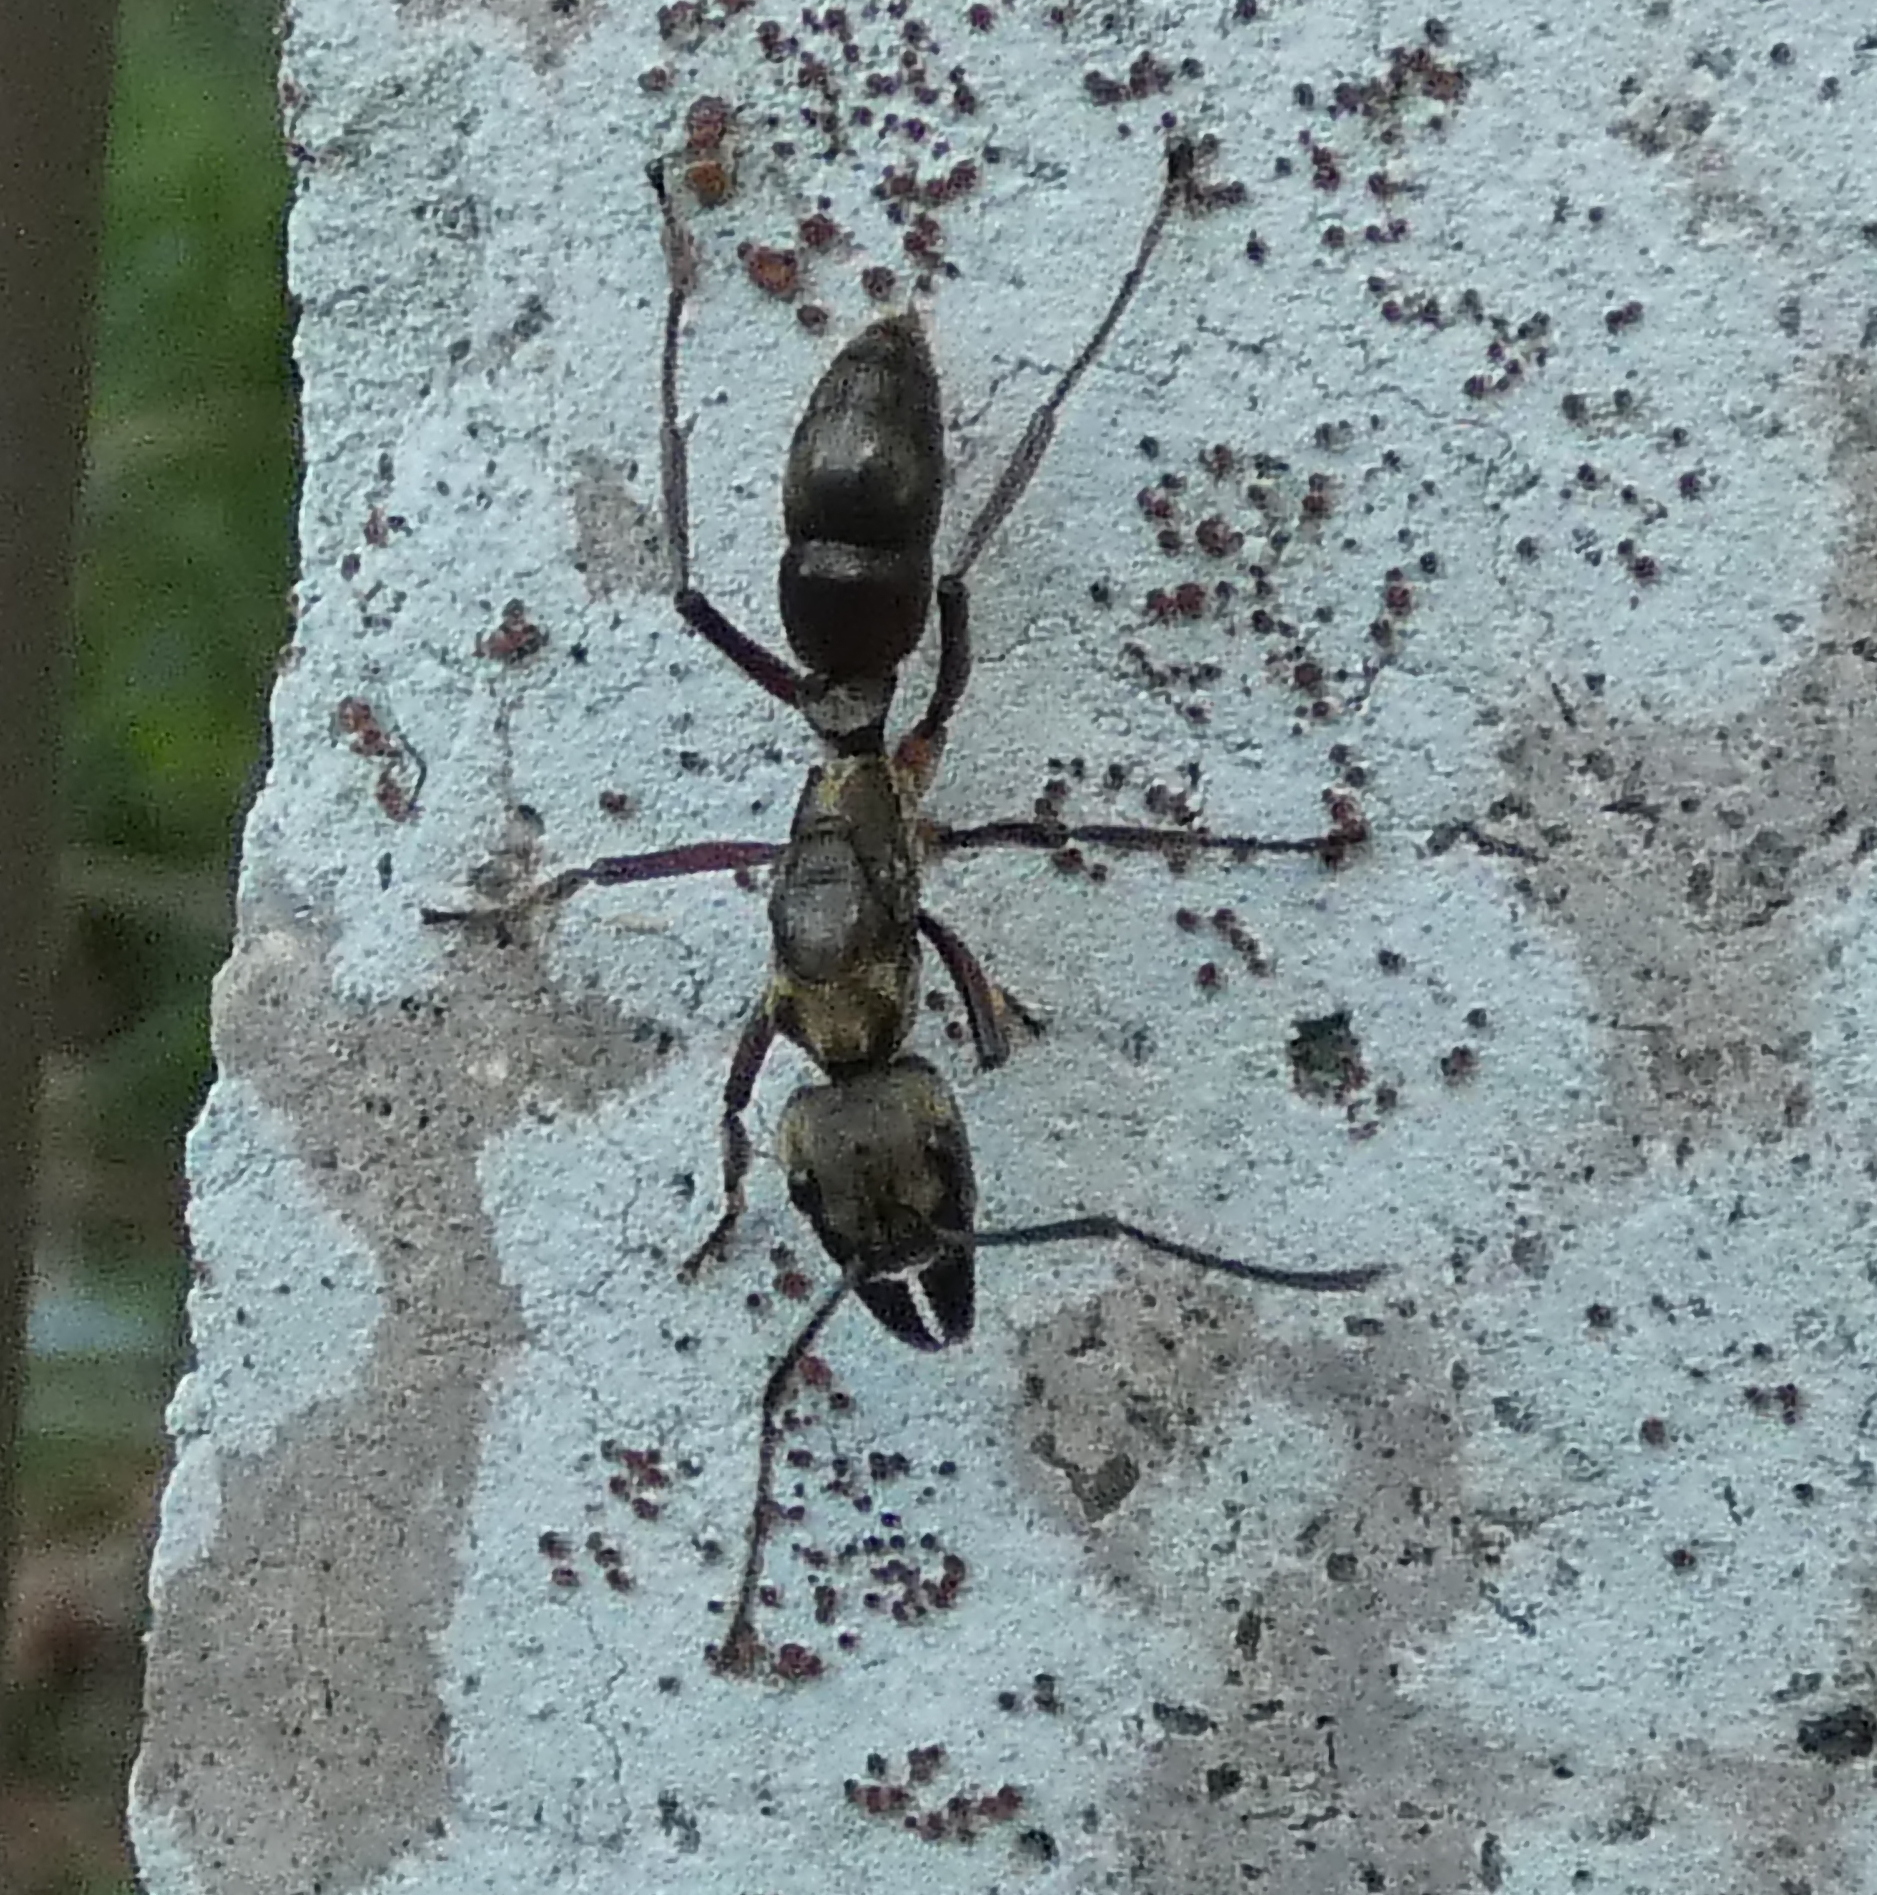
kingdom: Animalia
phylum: Arthropoda
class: Insecta
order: Hymenoptera
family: Formicidae
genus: Pachycondyla
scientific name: Pachycondyla villosa
